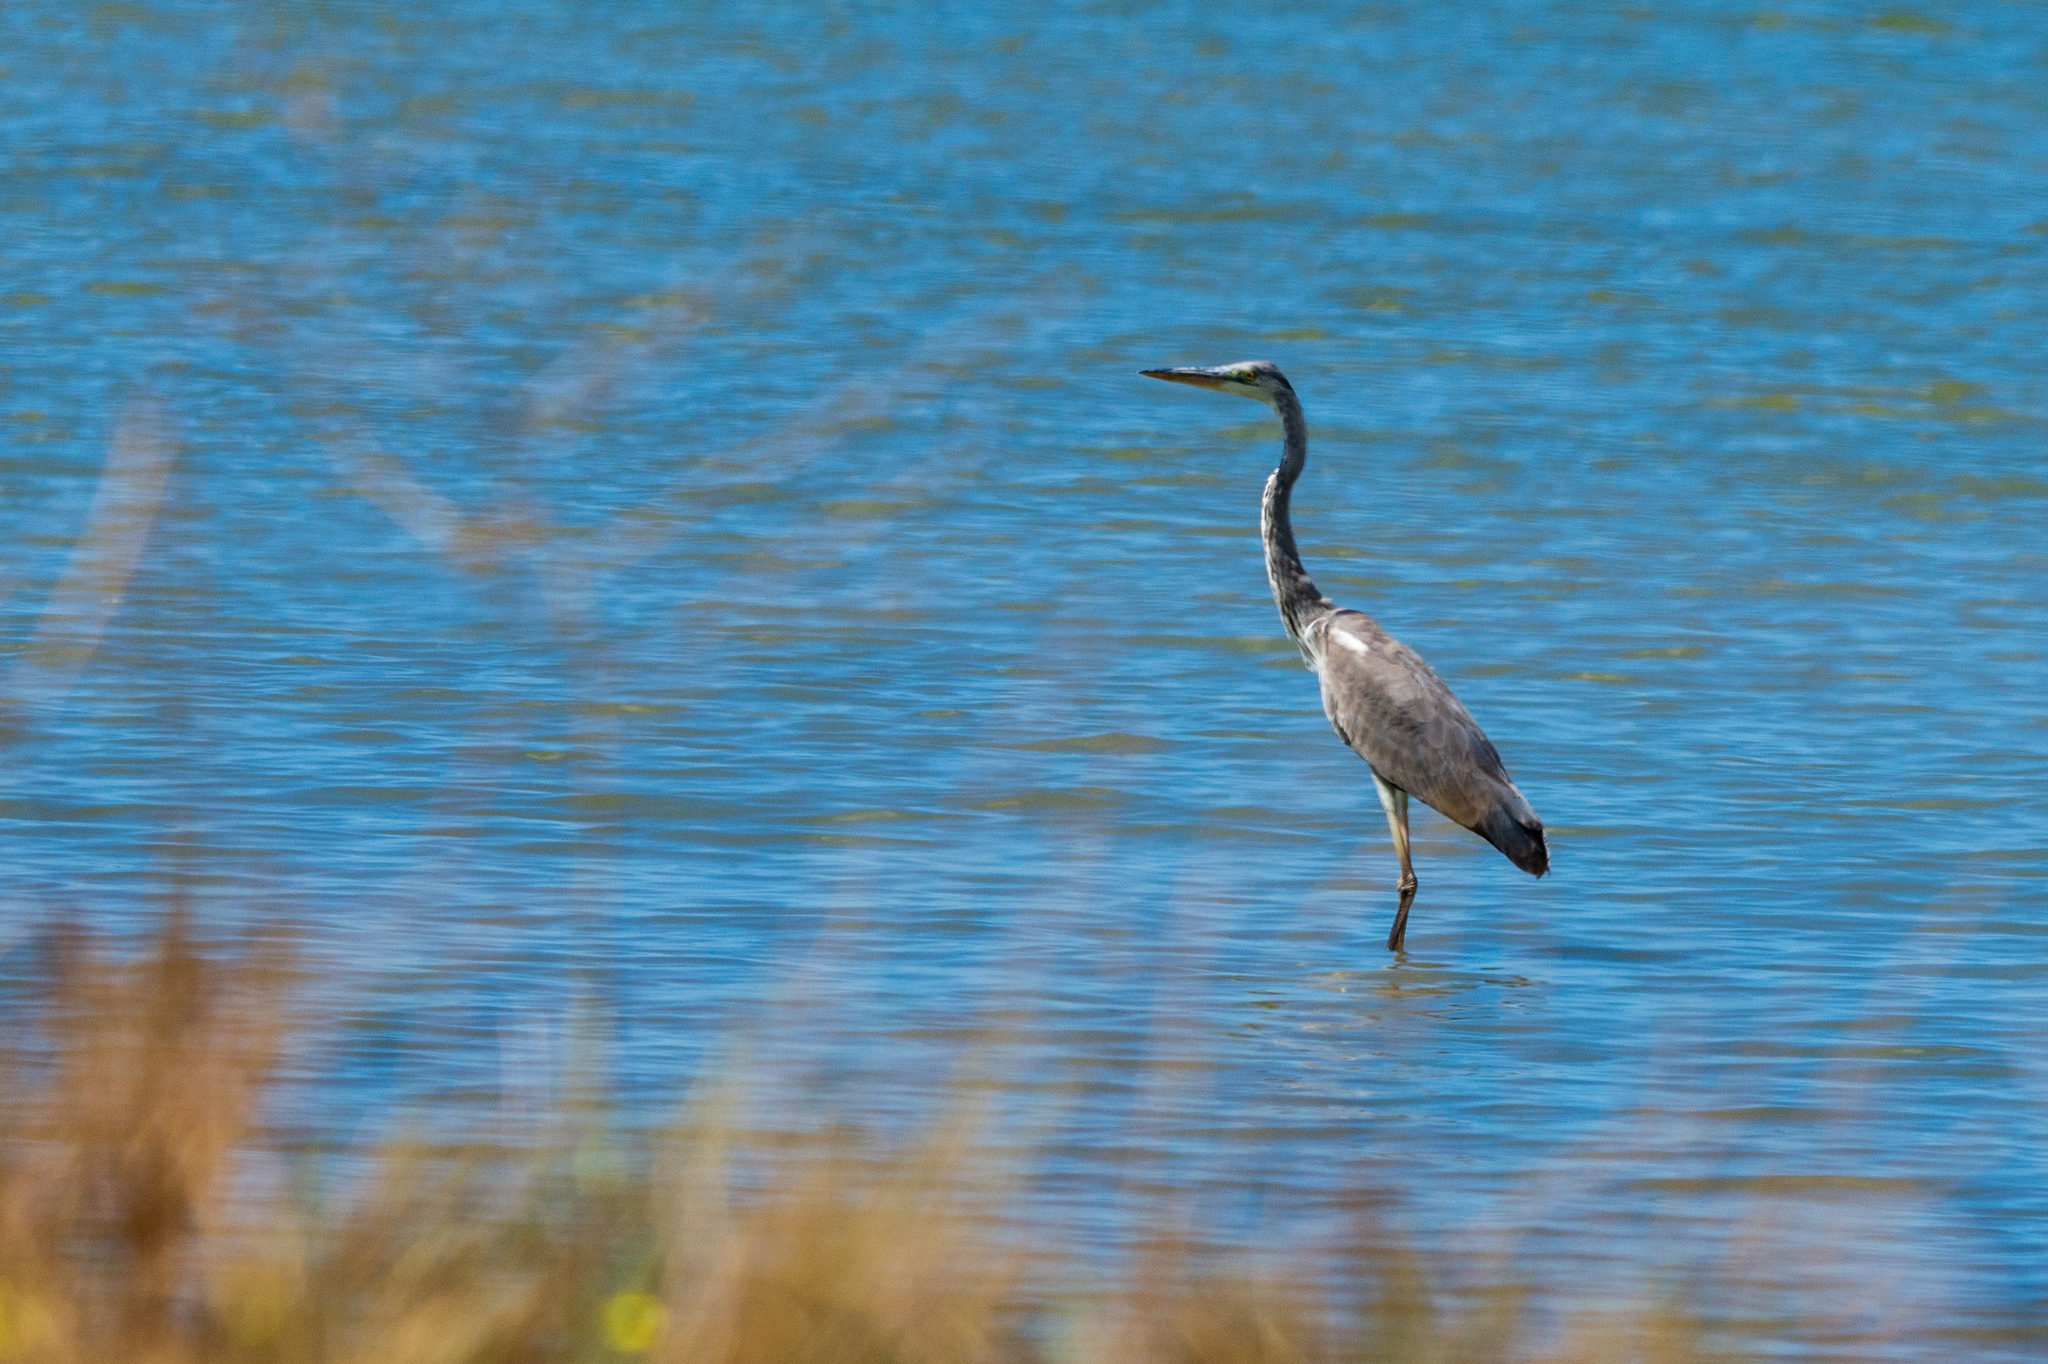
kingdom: Animalia
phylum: Chordata
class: Aves
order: Pelecaniformes
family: Ardeidae
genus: Ardea
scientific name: Ardea cinerea
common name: Grey heron
